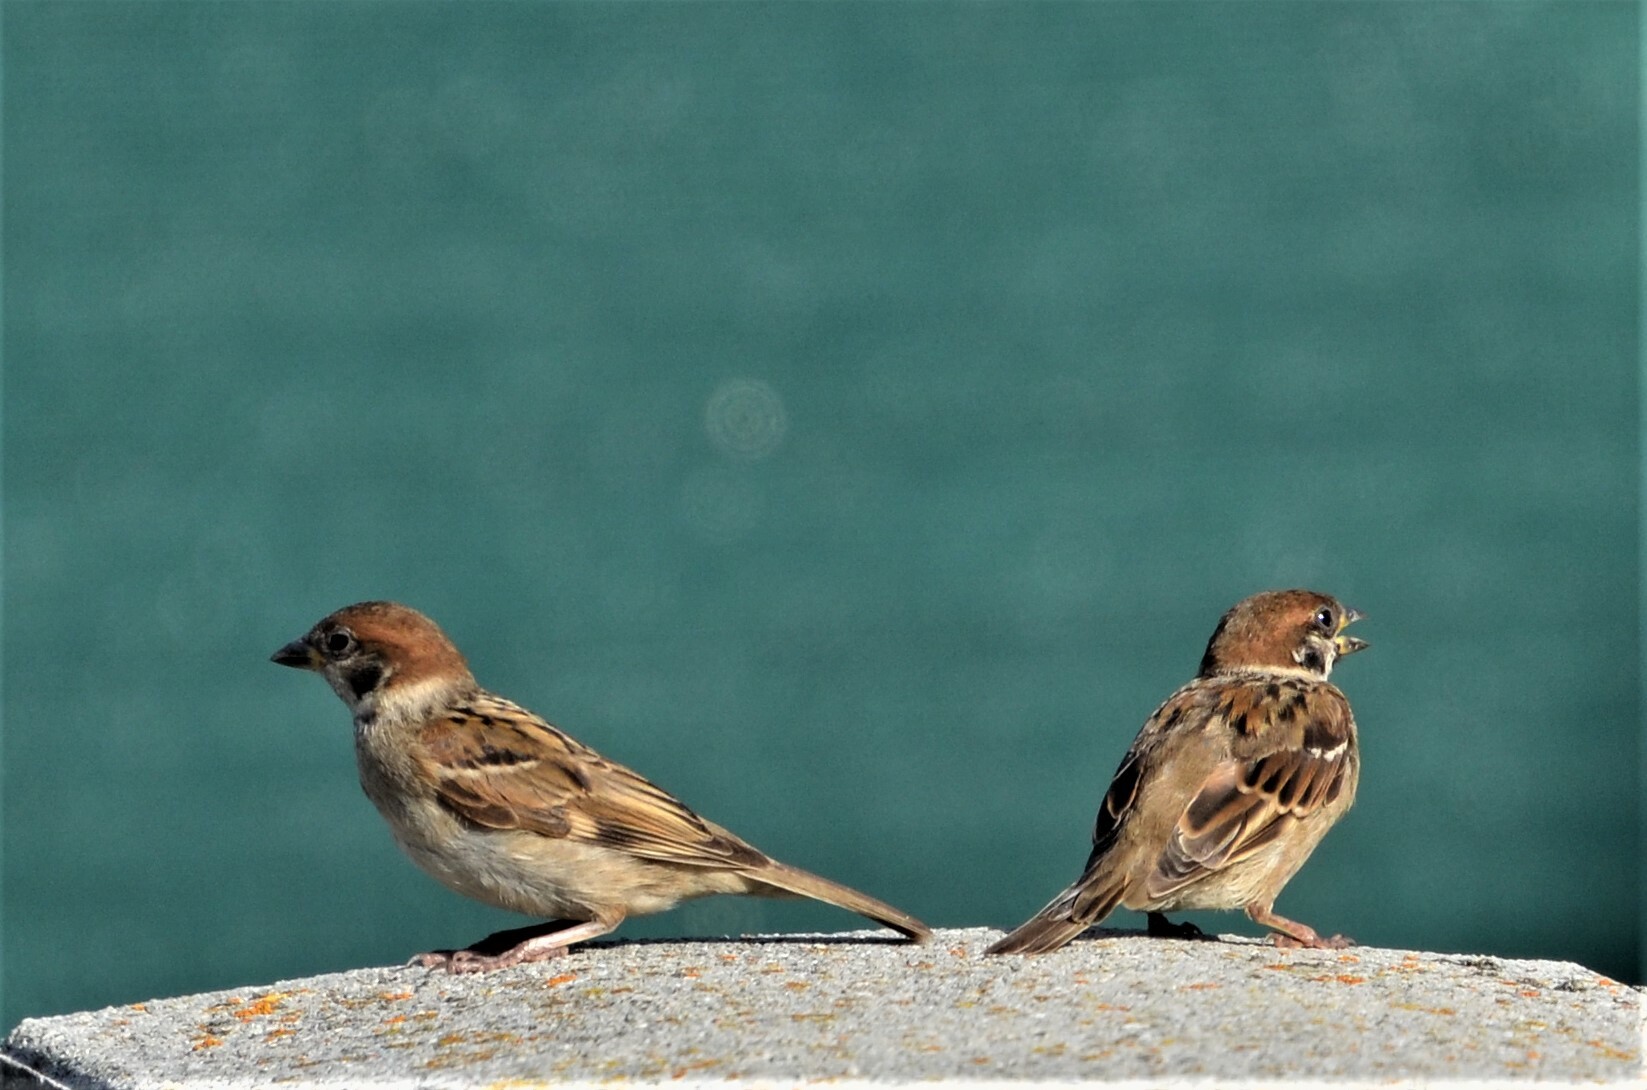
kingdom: Animalia
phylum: Chordata
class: Aves
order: Passeriformes
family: Passeridae
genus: Passer
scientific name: Passer montanus
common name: Eurasian tree sparrow
